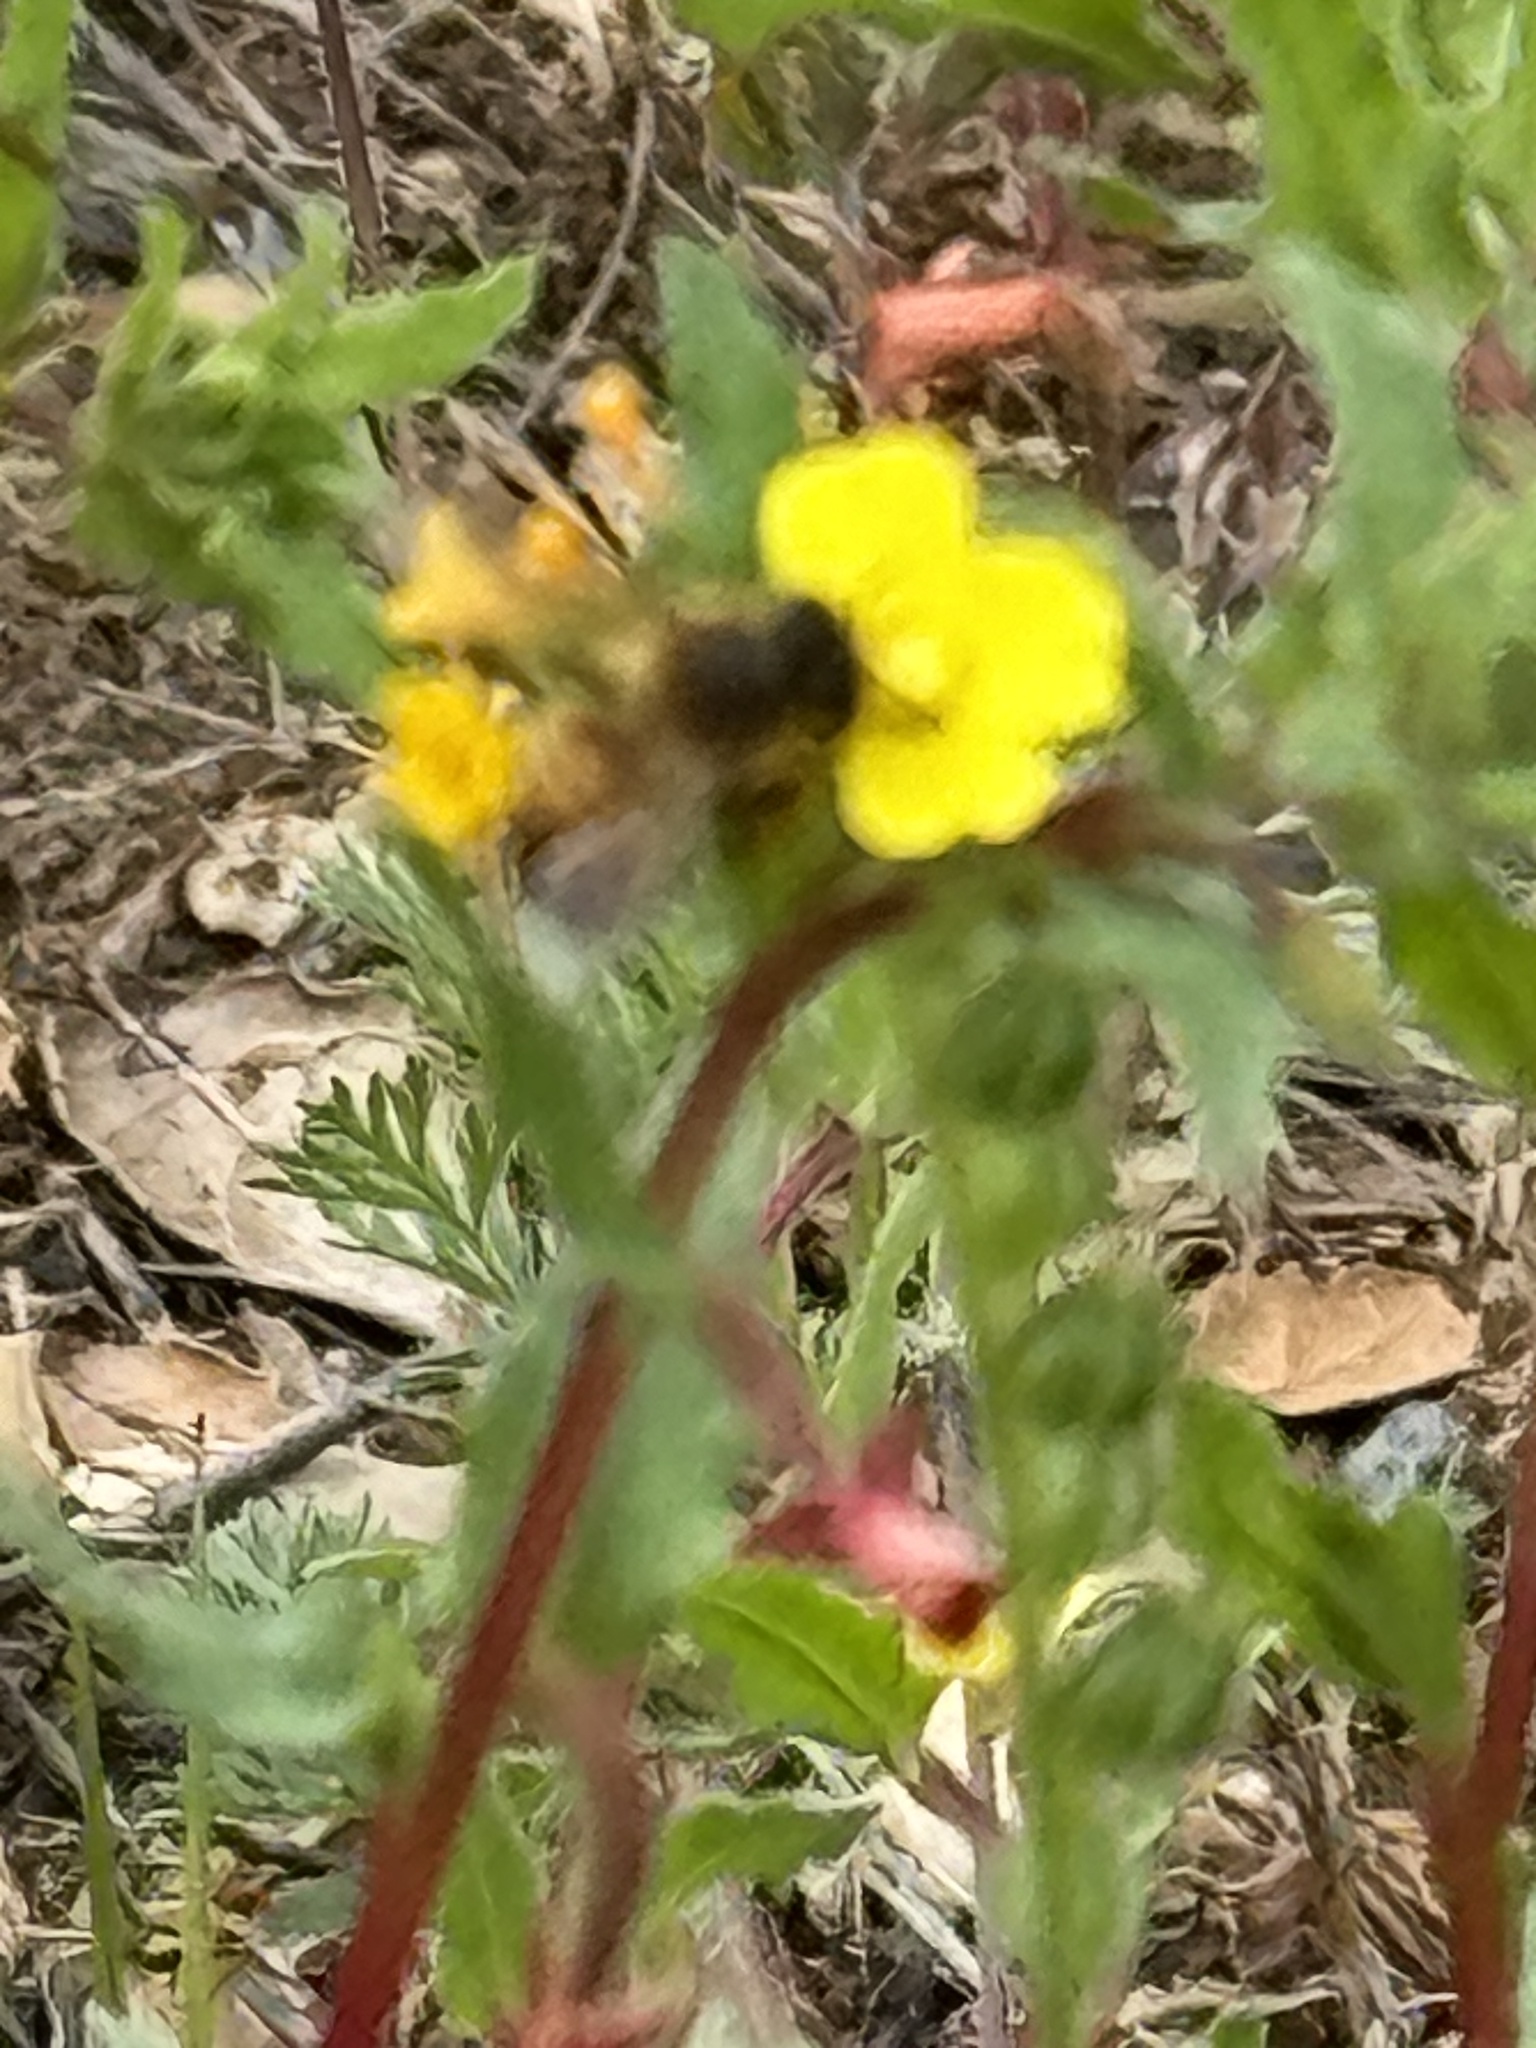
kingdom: Animalia
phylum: Arthropoda
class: Insecta
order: Hymenoptera
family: Apidae
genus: Apis
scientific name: Apis mellifera
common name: Honey bee
